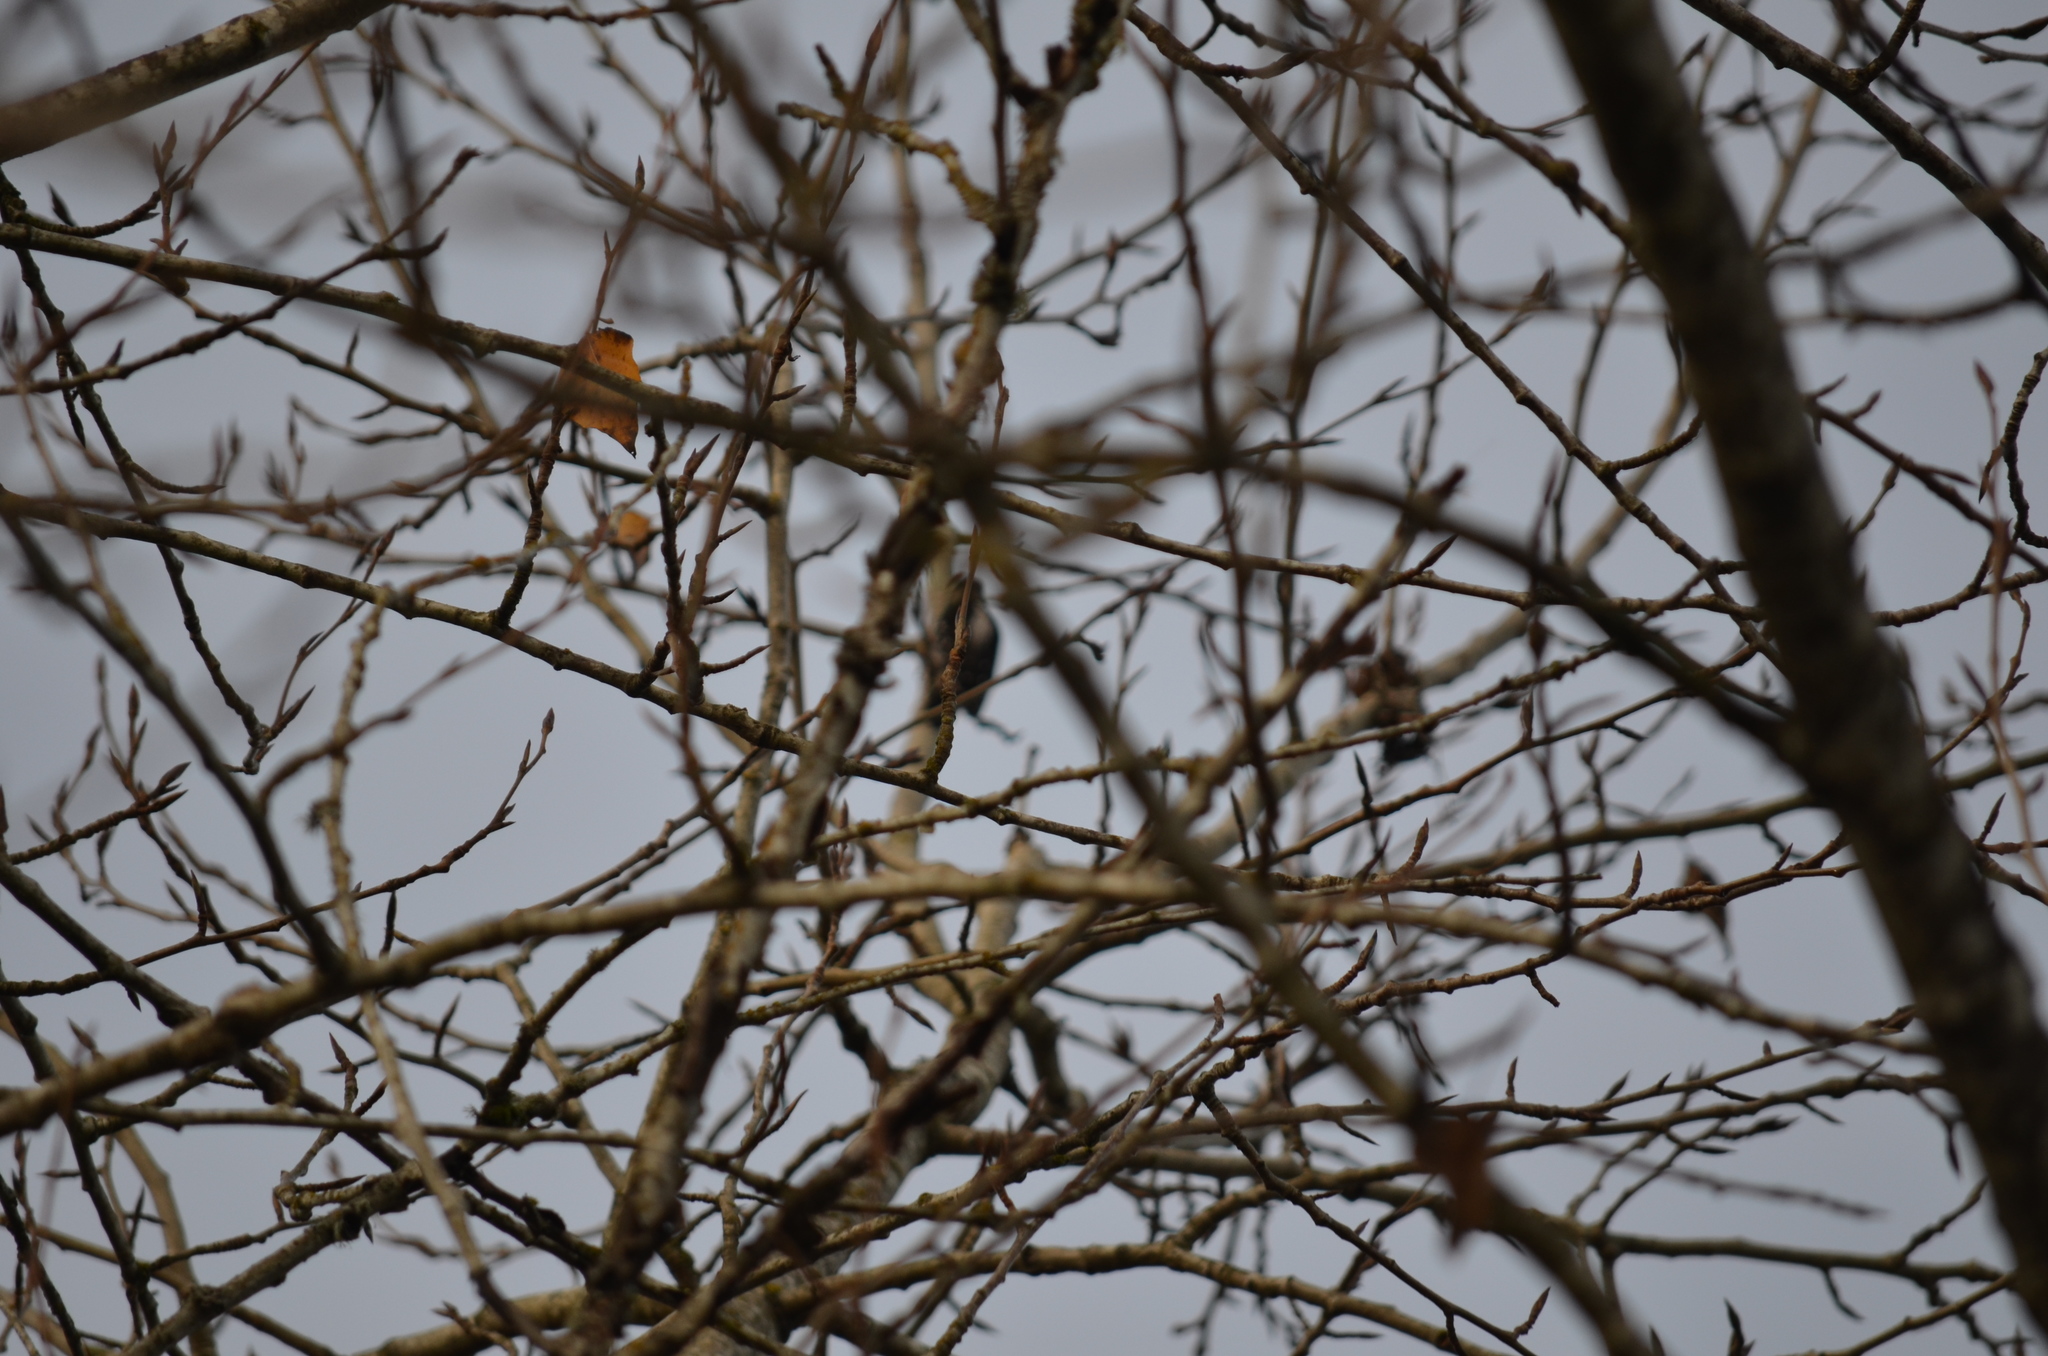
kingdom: Animalia
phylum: Chordata
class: Aves
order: Piciformes
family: Picidae
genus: Dryobates
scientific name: Dryobates pubescens
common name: Downy woodpecker
